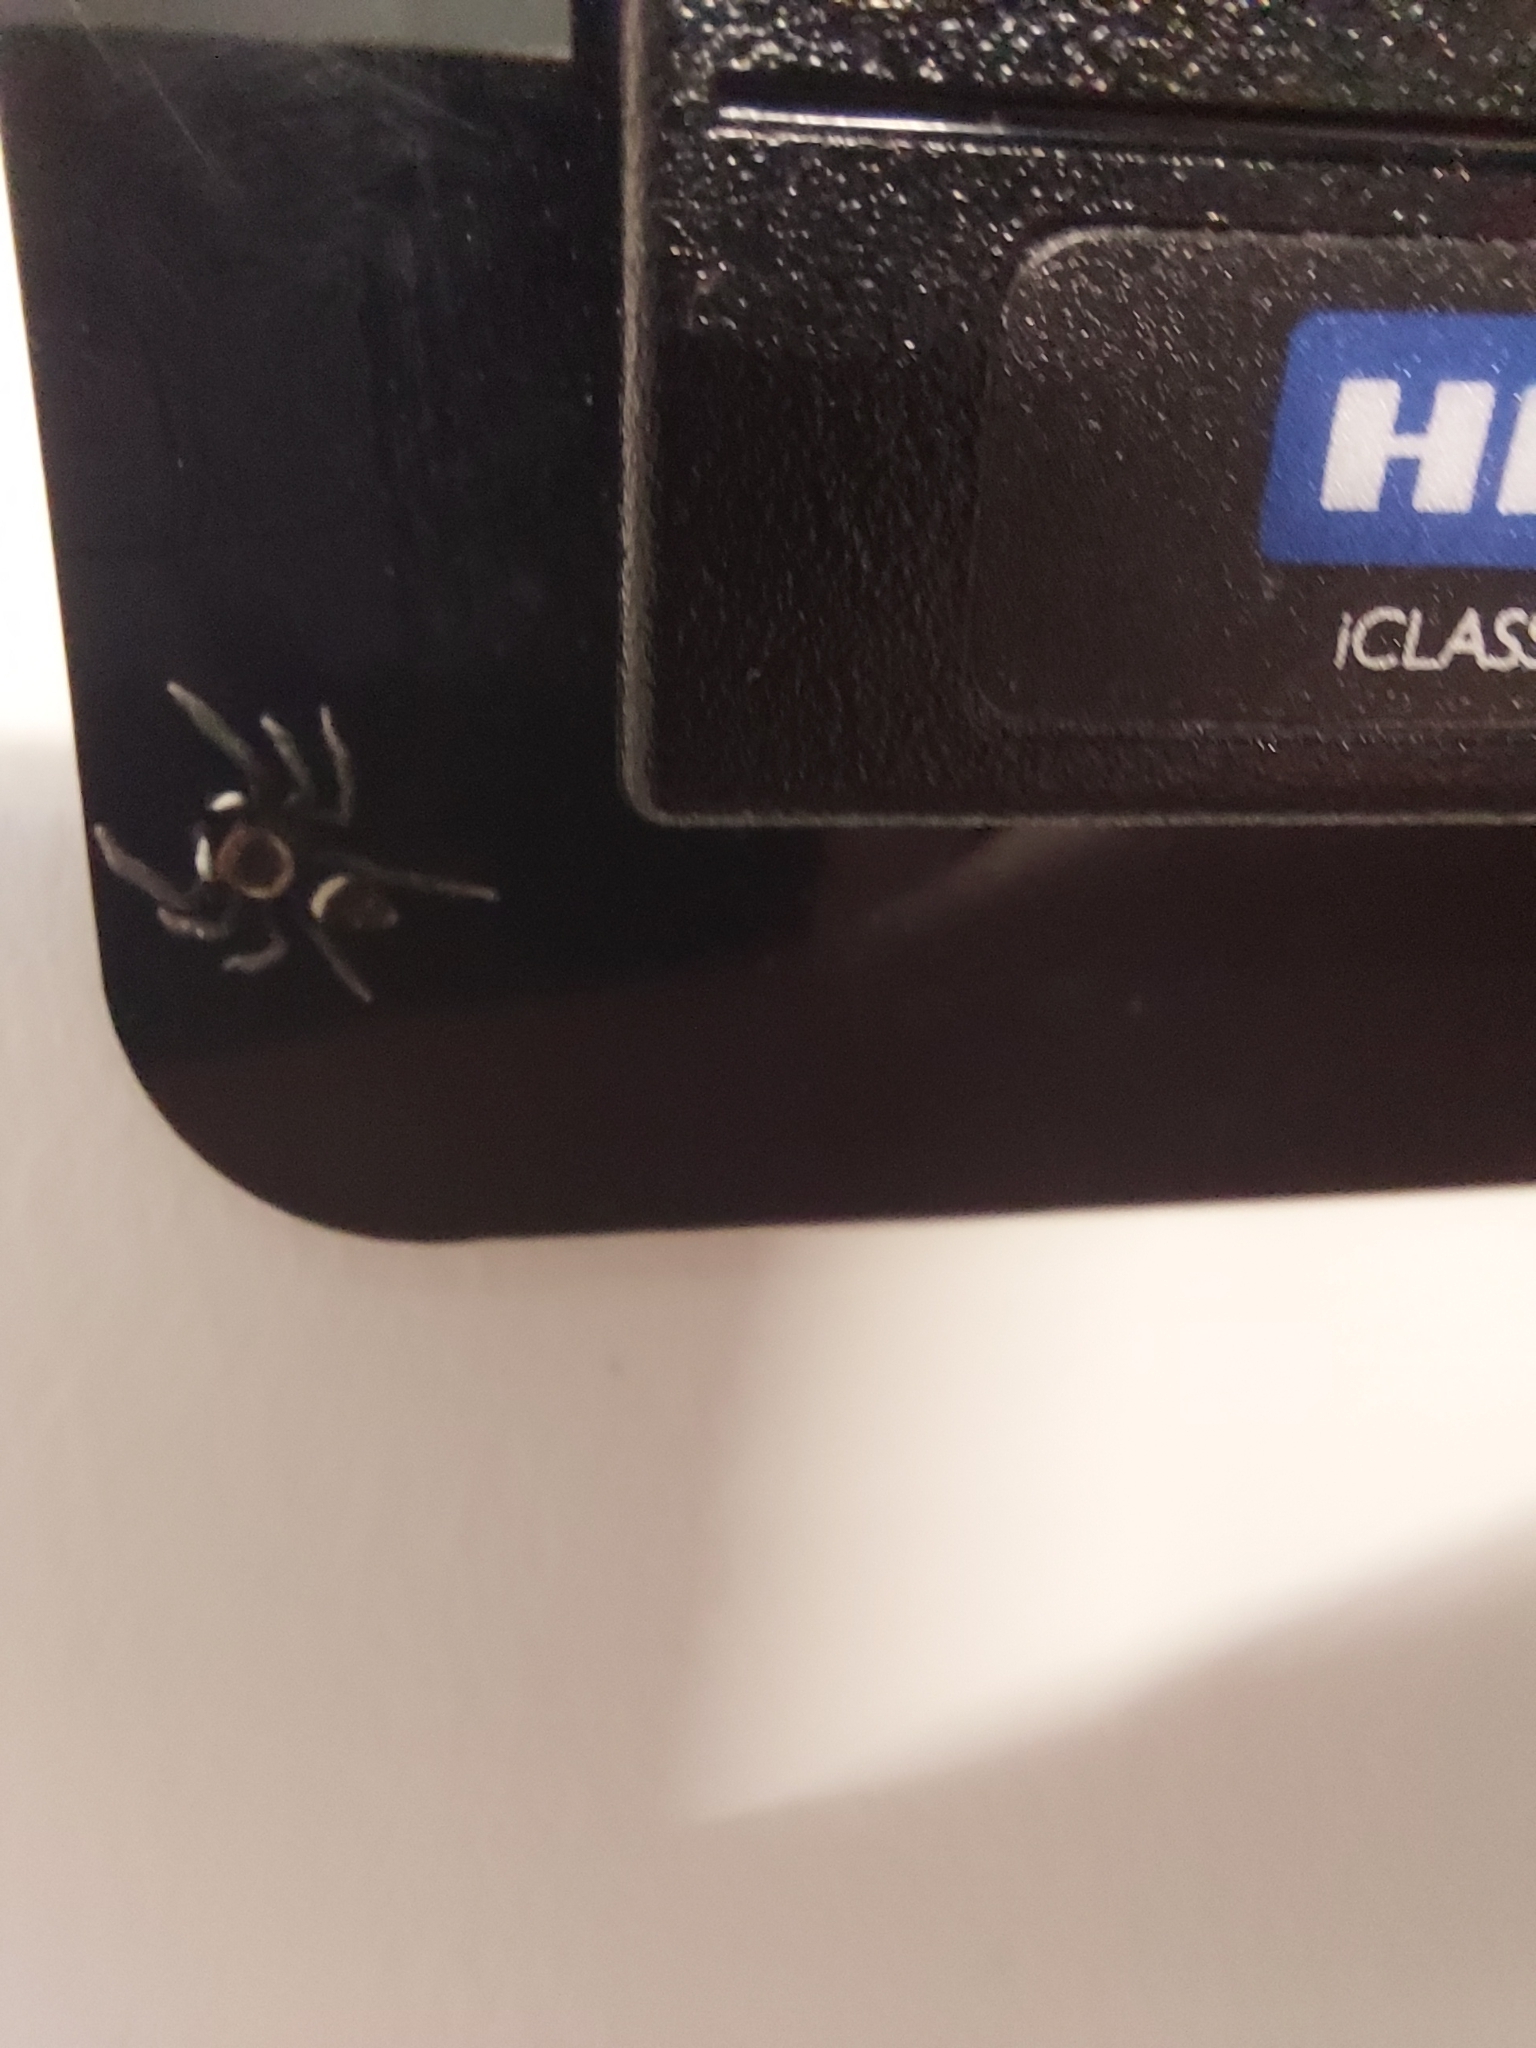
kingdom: Animalia
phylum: Arthropoda
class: Arachnida
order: Araneae
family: Salticidae
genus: Hasarius
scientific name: Hasarius adansoni
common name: Jumping spider
